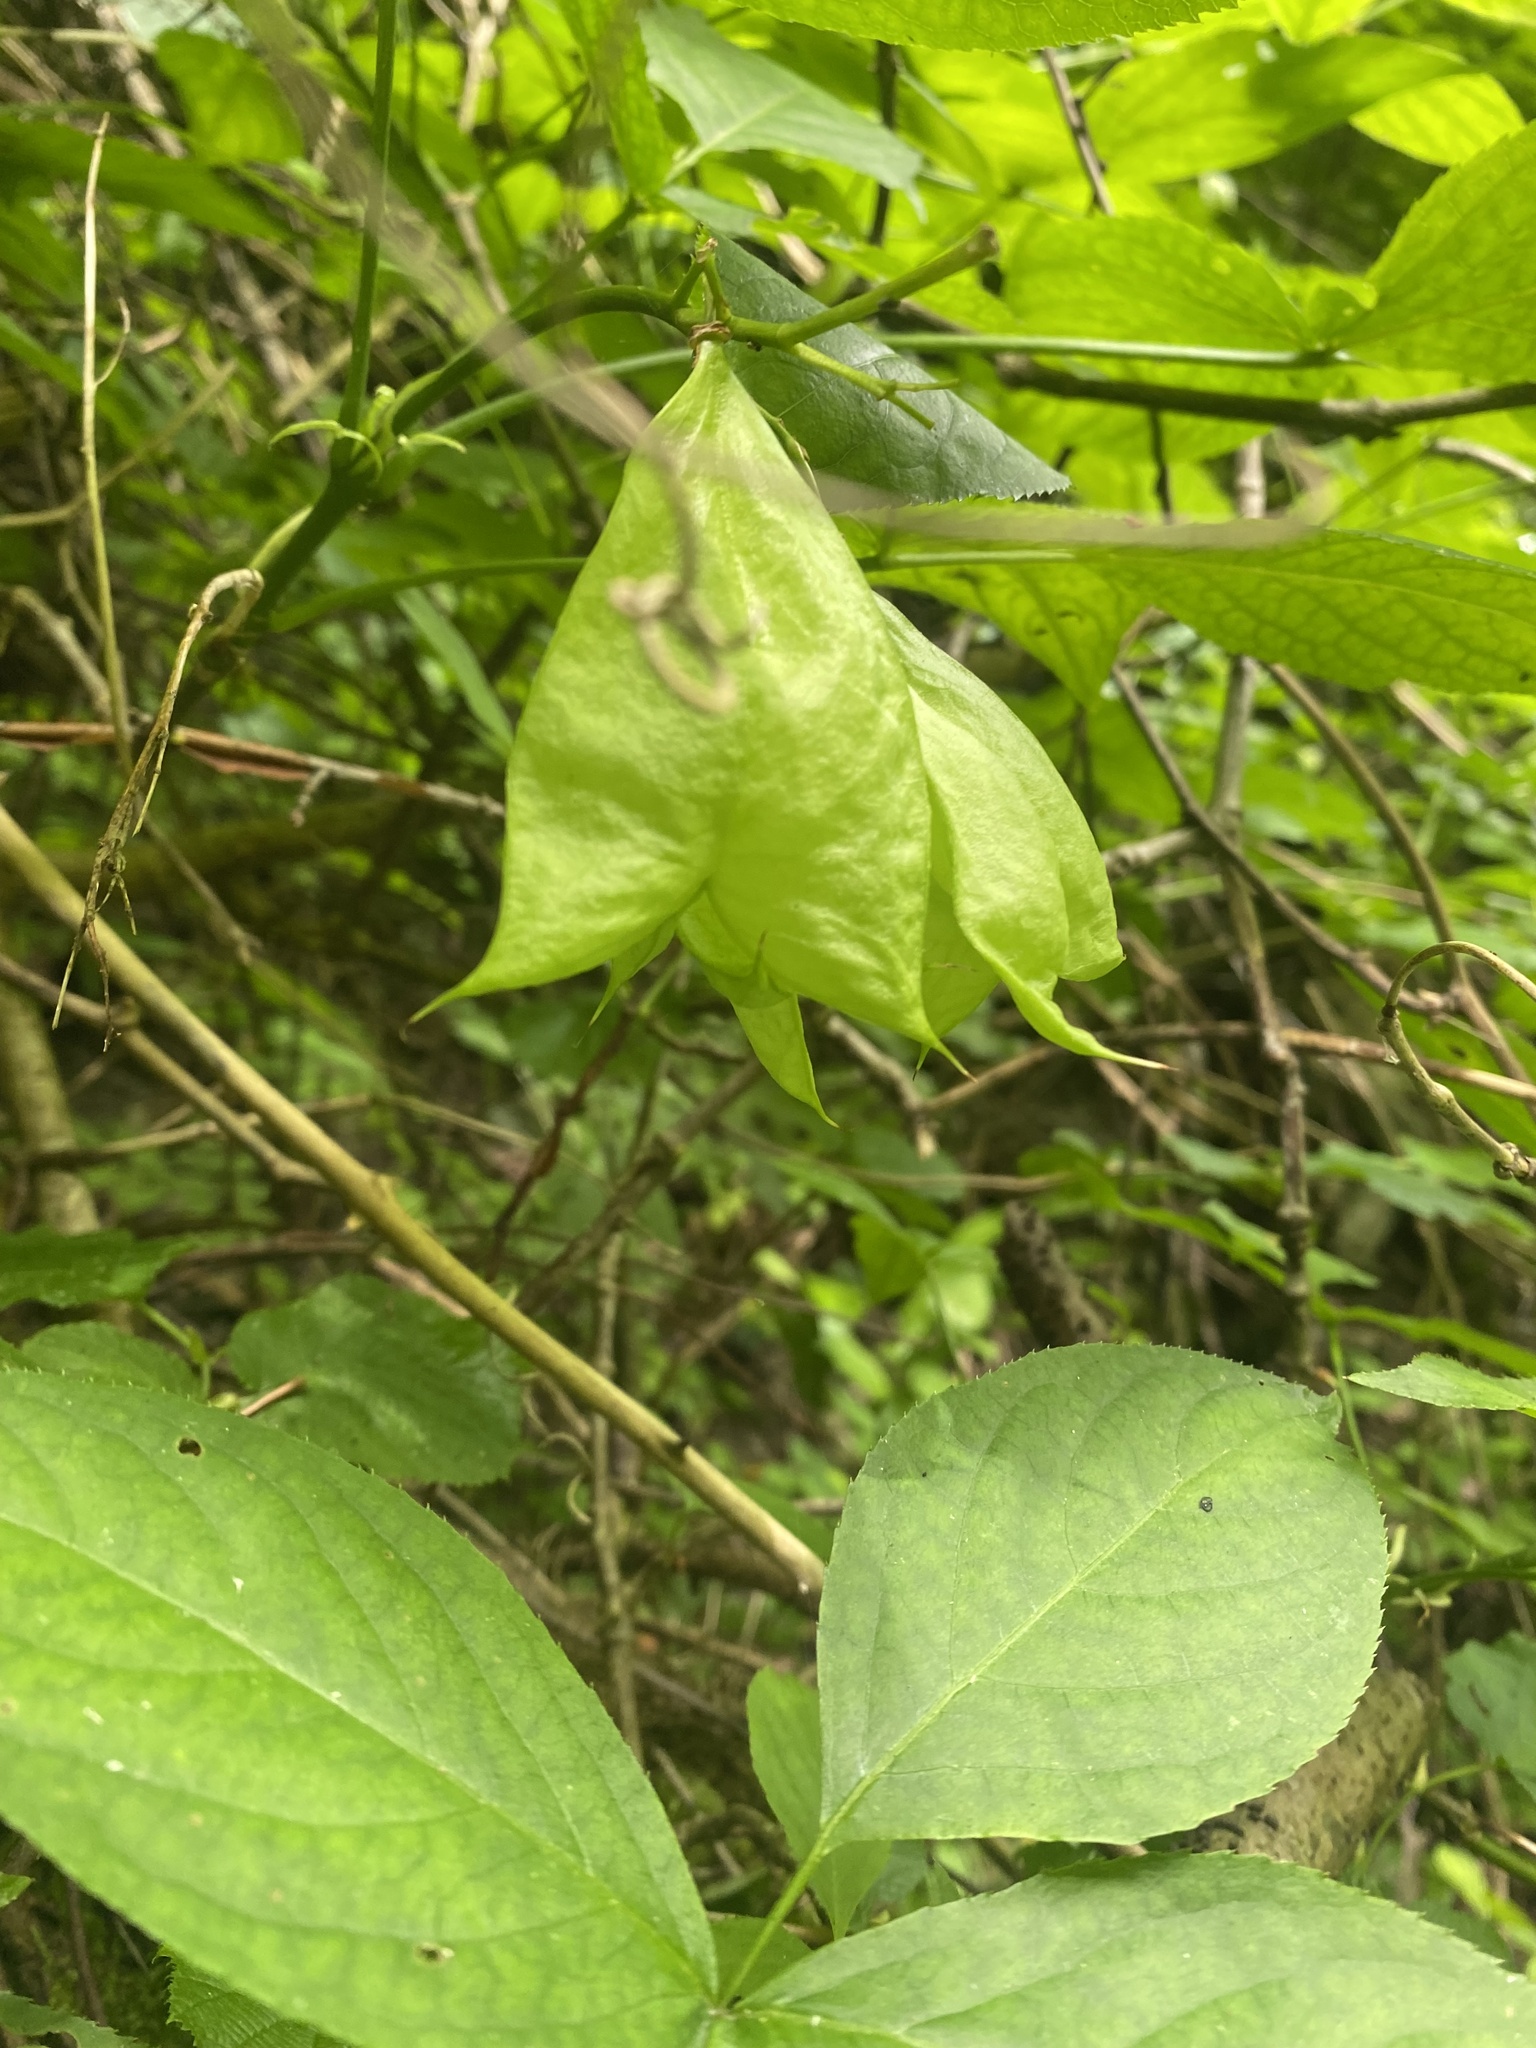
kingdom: Plantae
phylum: Tracheophyta
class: Magnoliopsida
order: Crossosomatales
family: Staphyleaceae
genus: Staphylea
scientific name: Staphylea colchica
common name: Caucasian bladdernut
